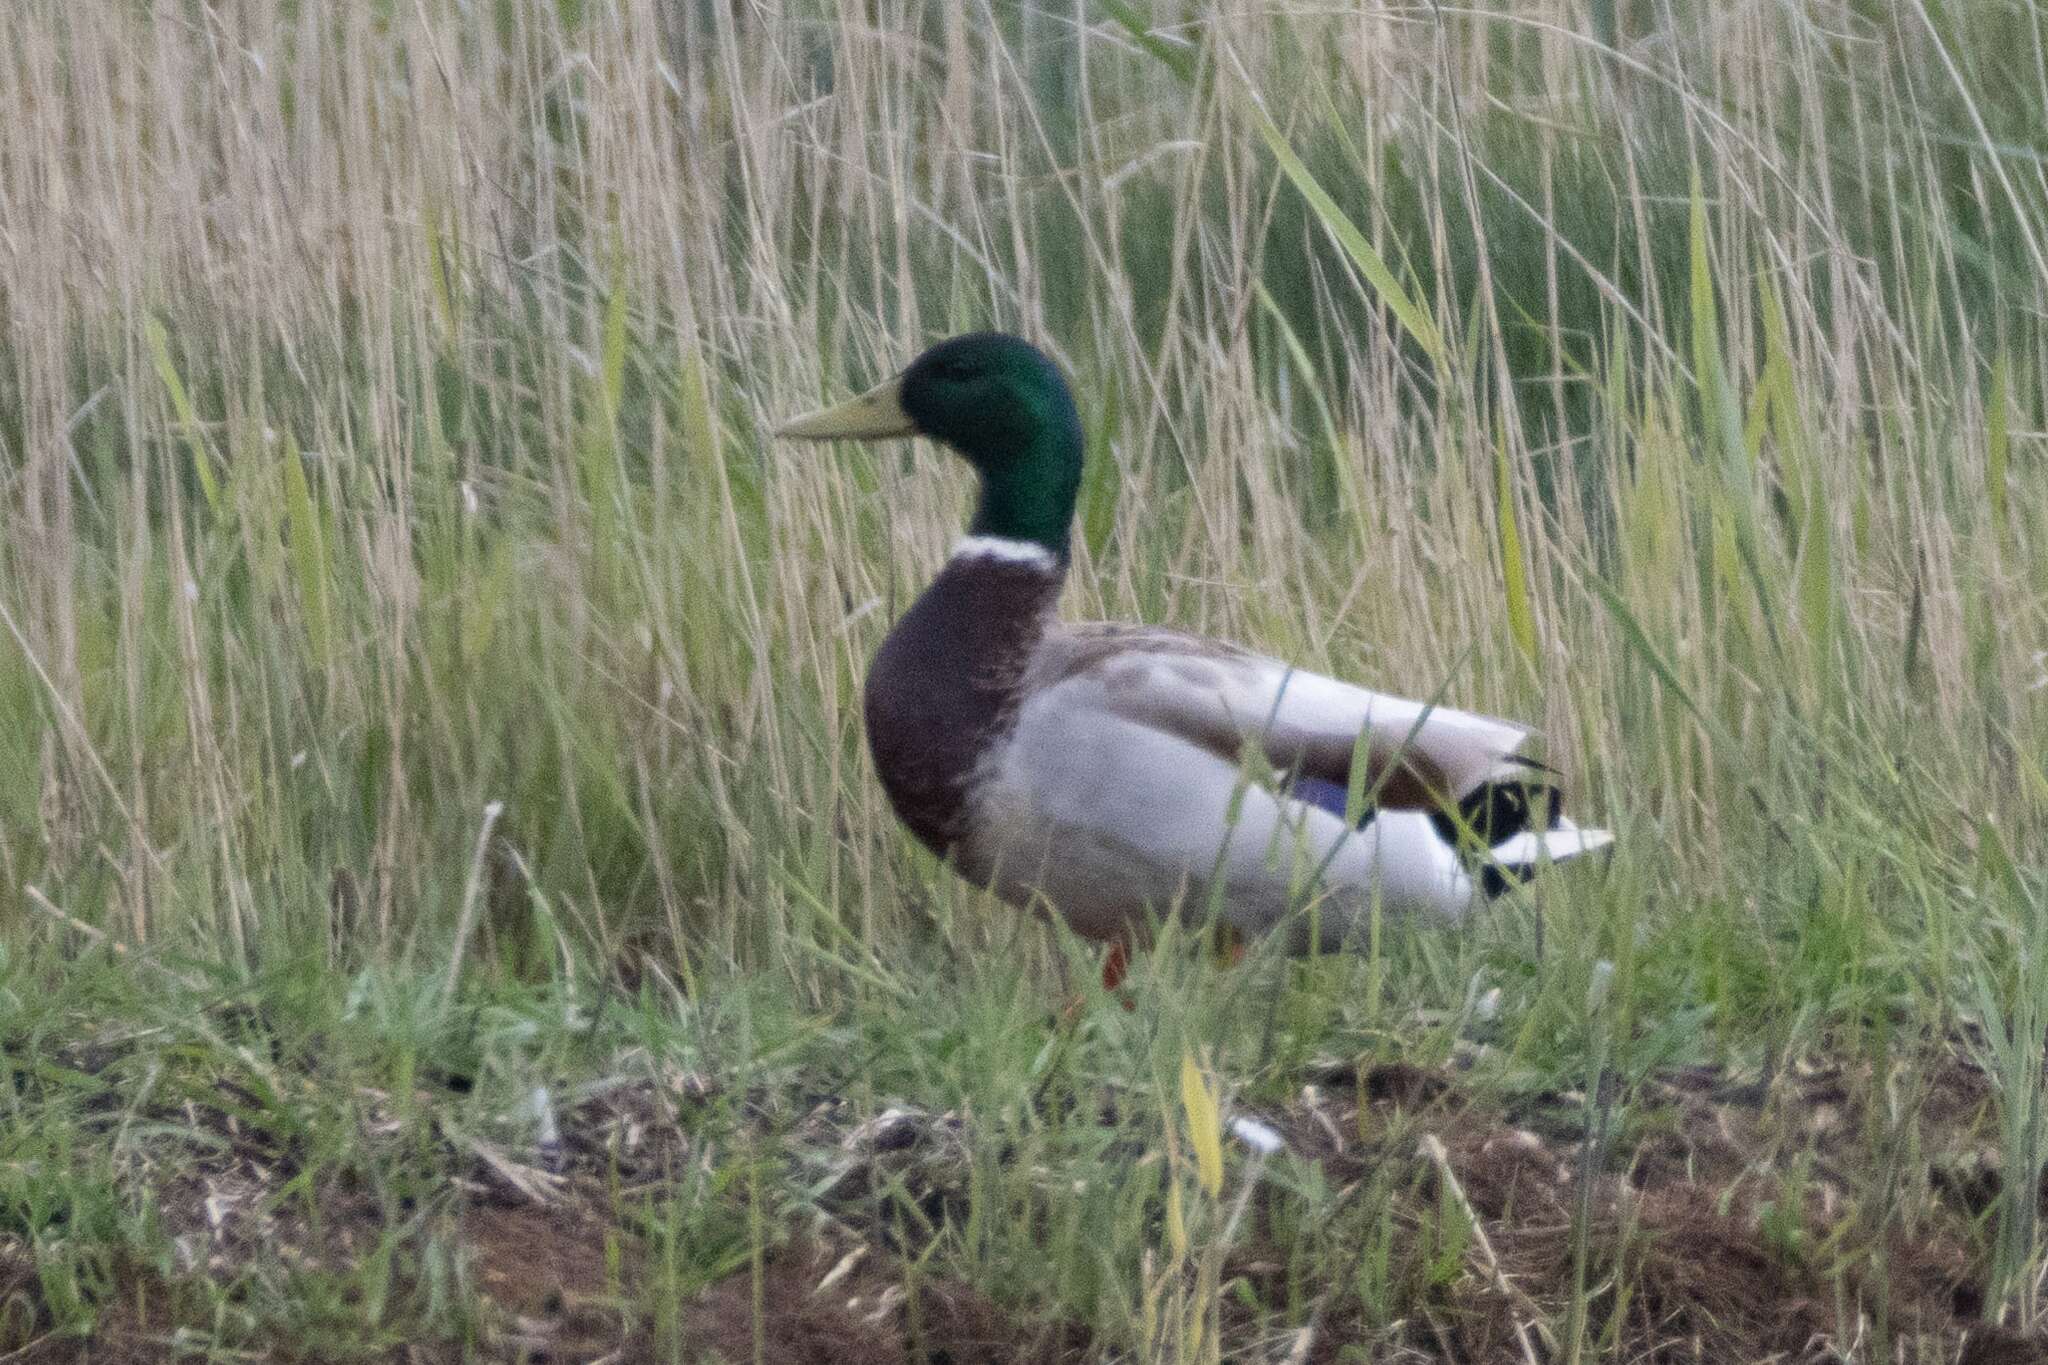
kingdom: Animalia
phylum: Chordata
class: Aves
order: Anseriformes
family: Anatidae
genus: Anas
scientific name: Anas platyrhynchos
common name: Mallard
